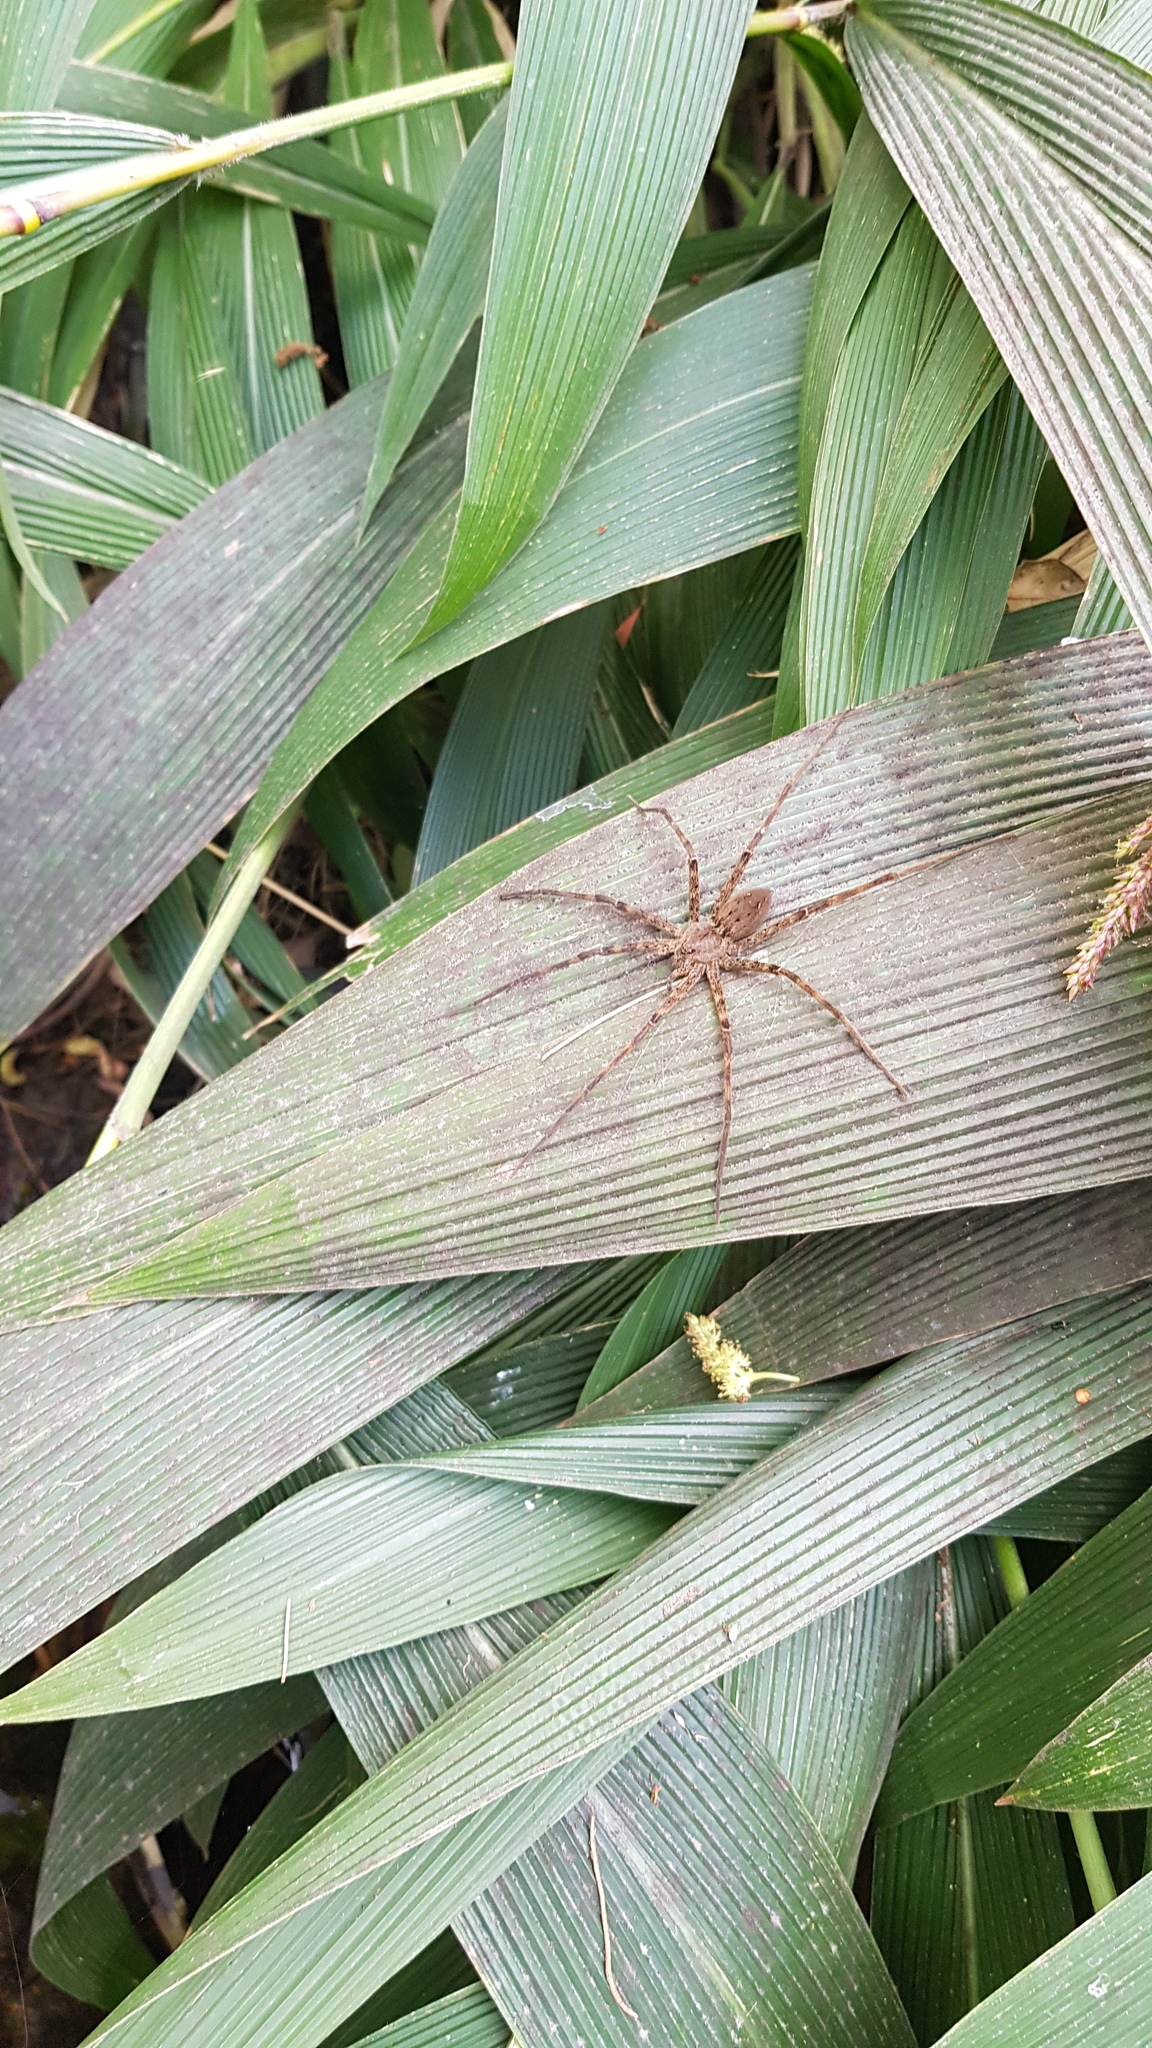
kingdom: Animalia
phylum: Arthropoda
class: Arachnida
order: Araneae
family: Pisauridae
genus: Megadolomedes
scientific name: Megadolomedes australianus
